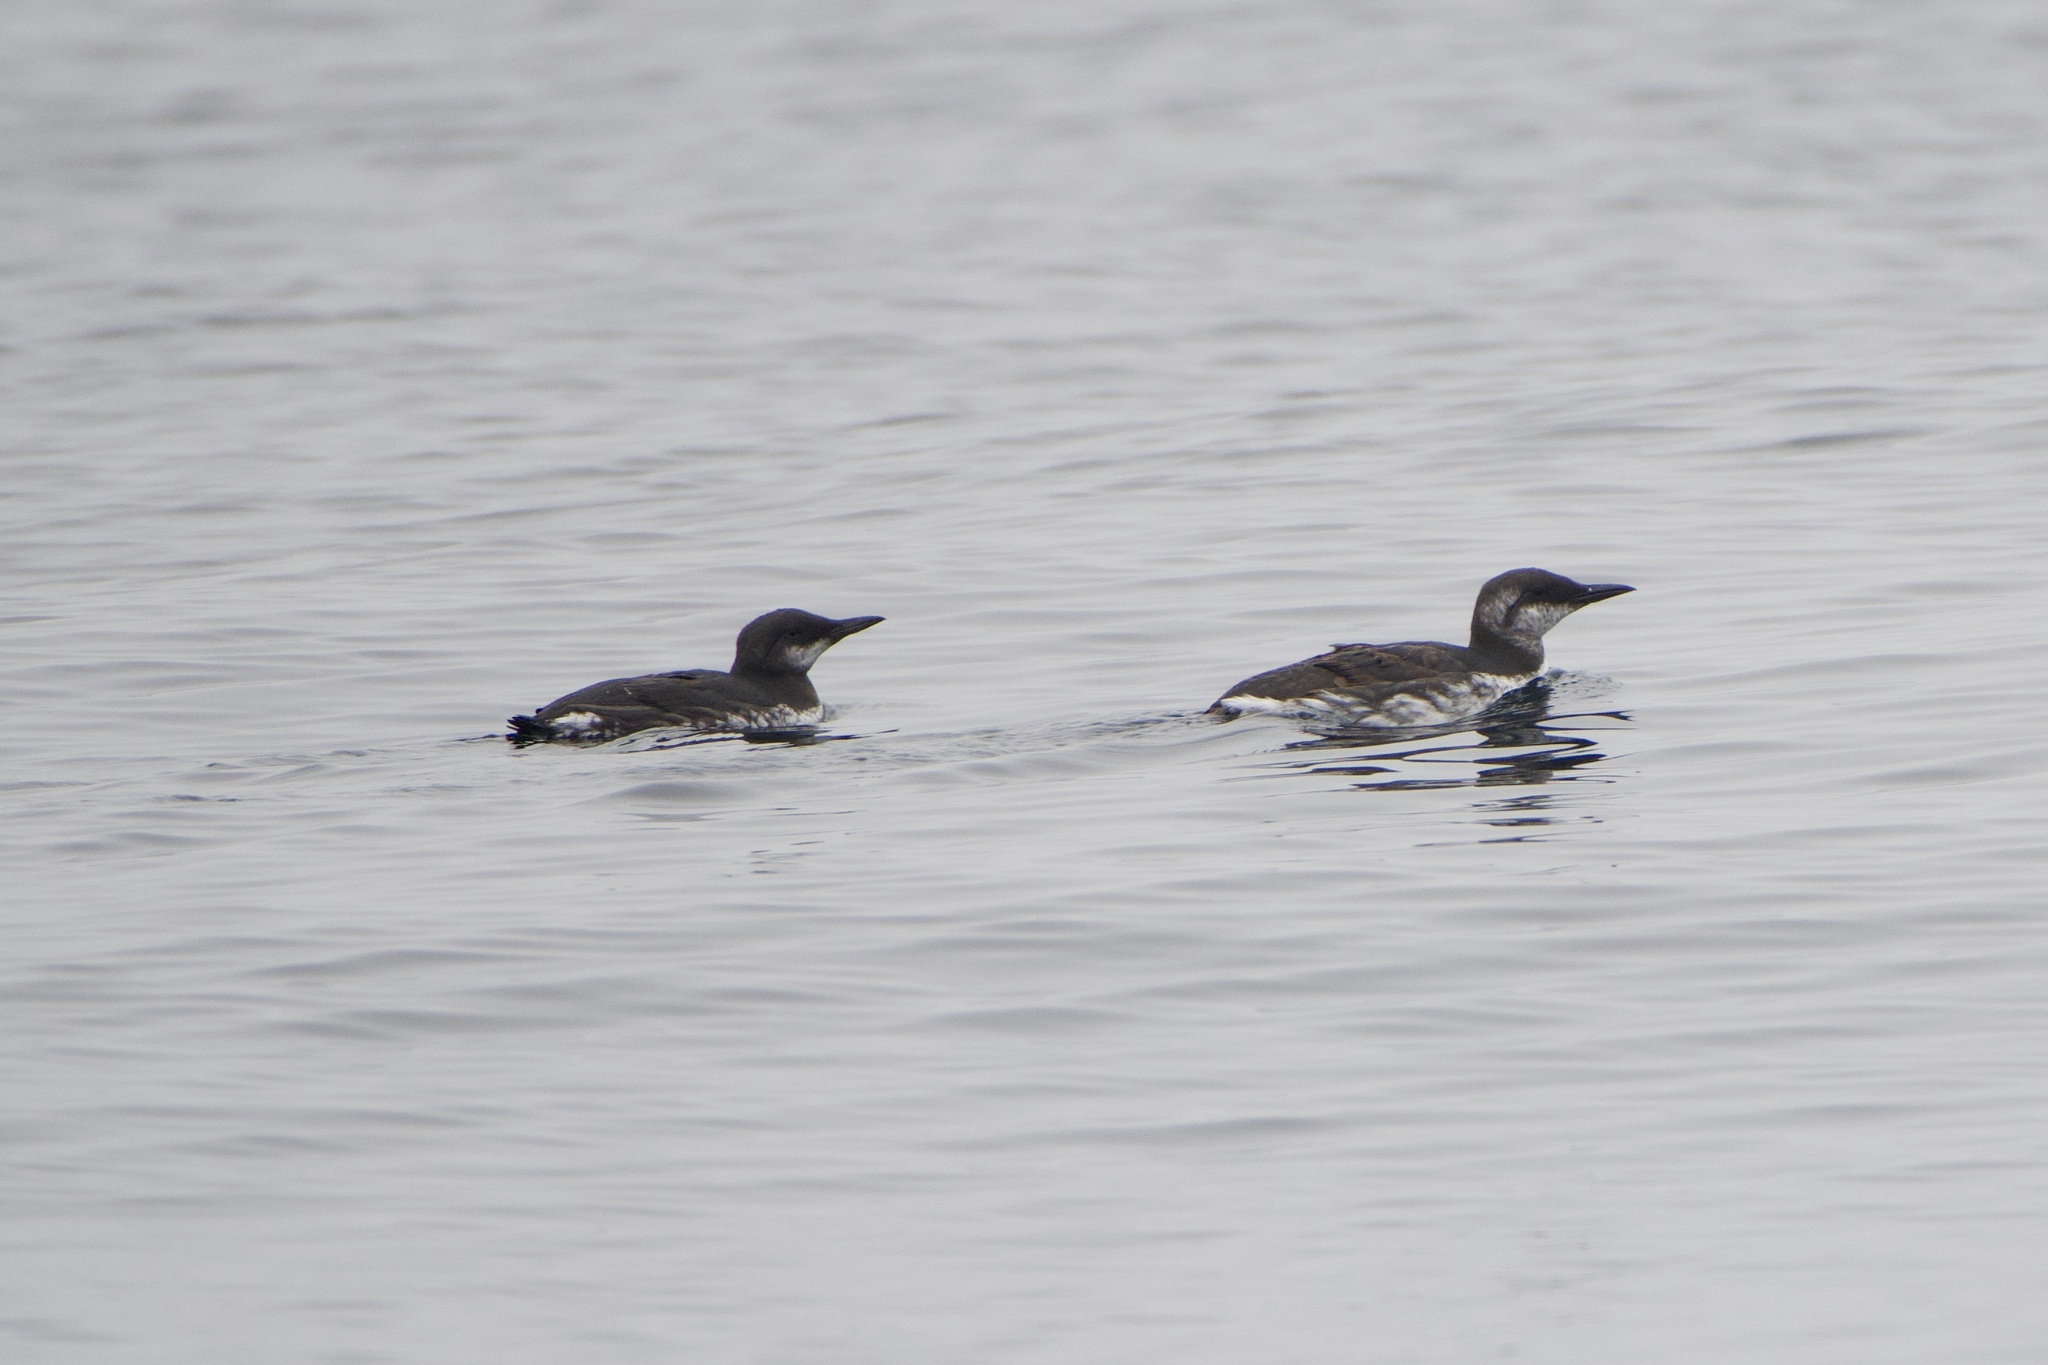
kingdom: Animalia
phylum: Chordata
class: Aves
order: Charadriiformes
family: Alcidae
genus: Uria
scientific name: Uria aalge
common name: Common murre
